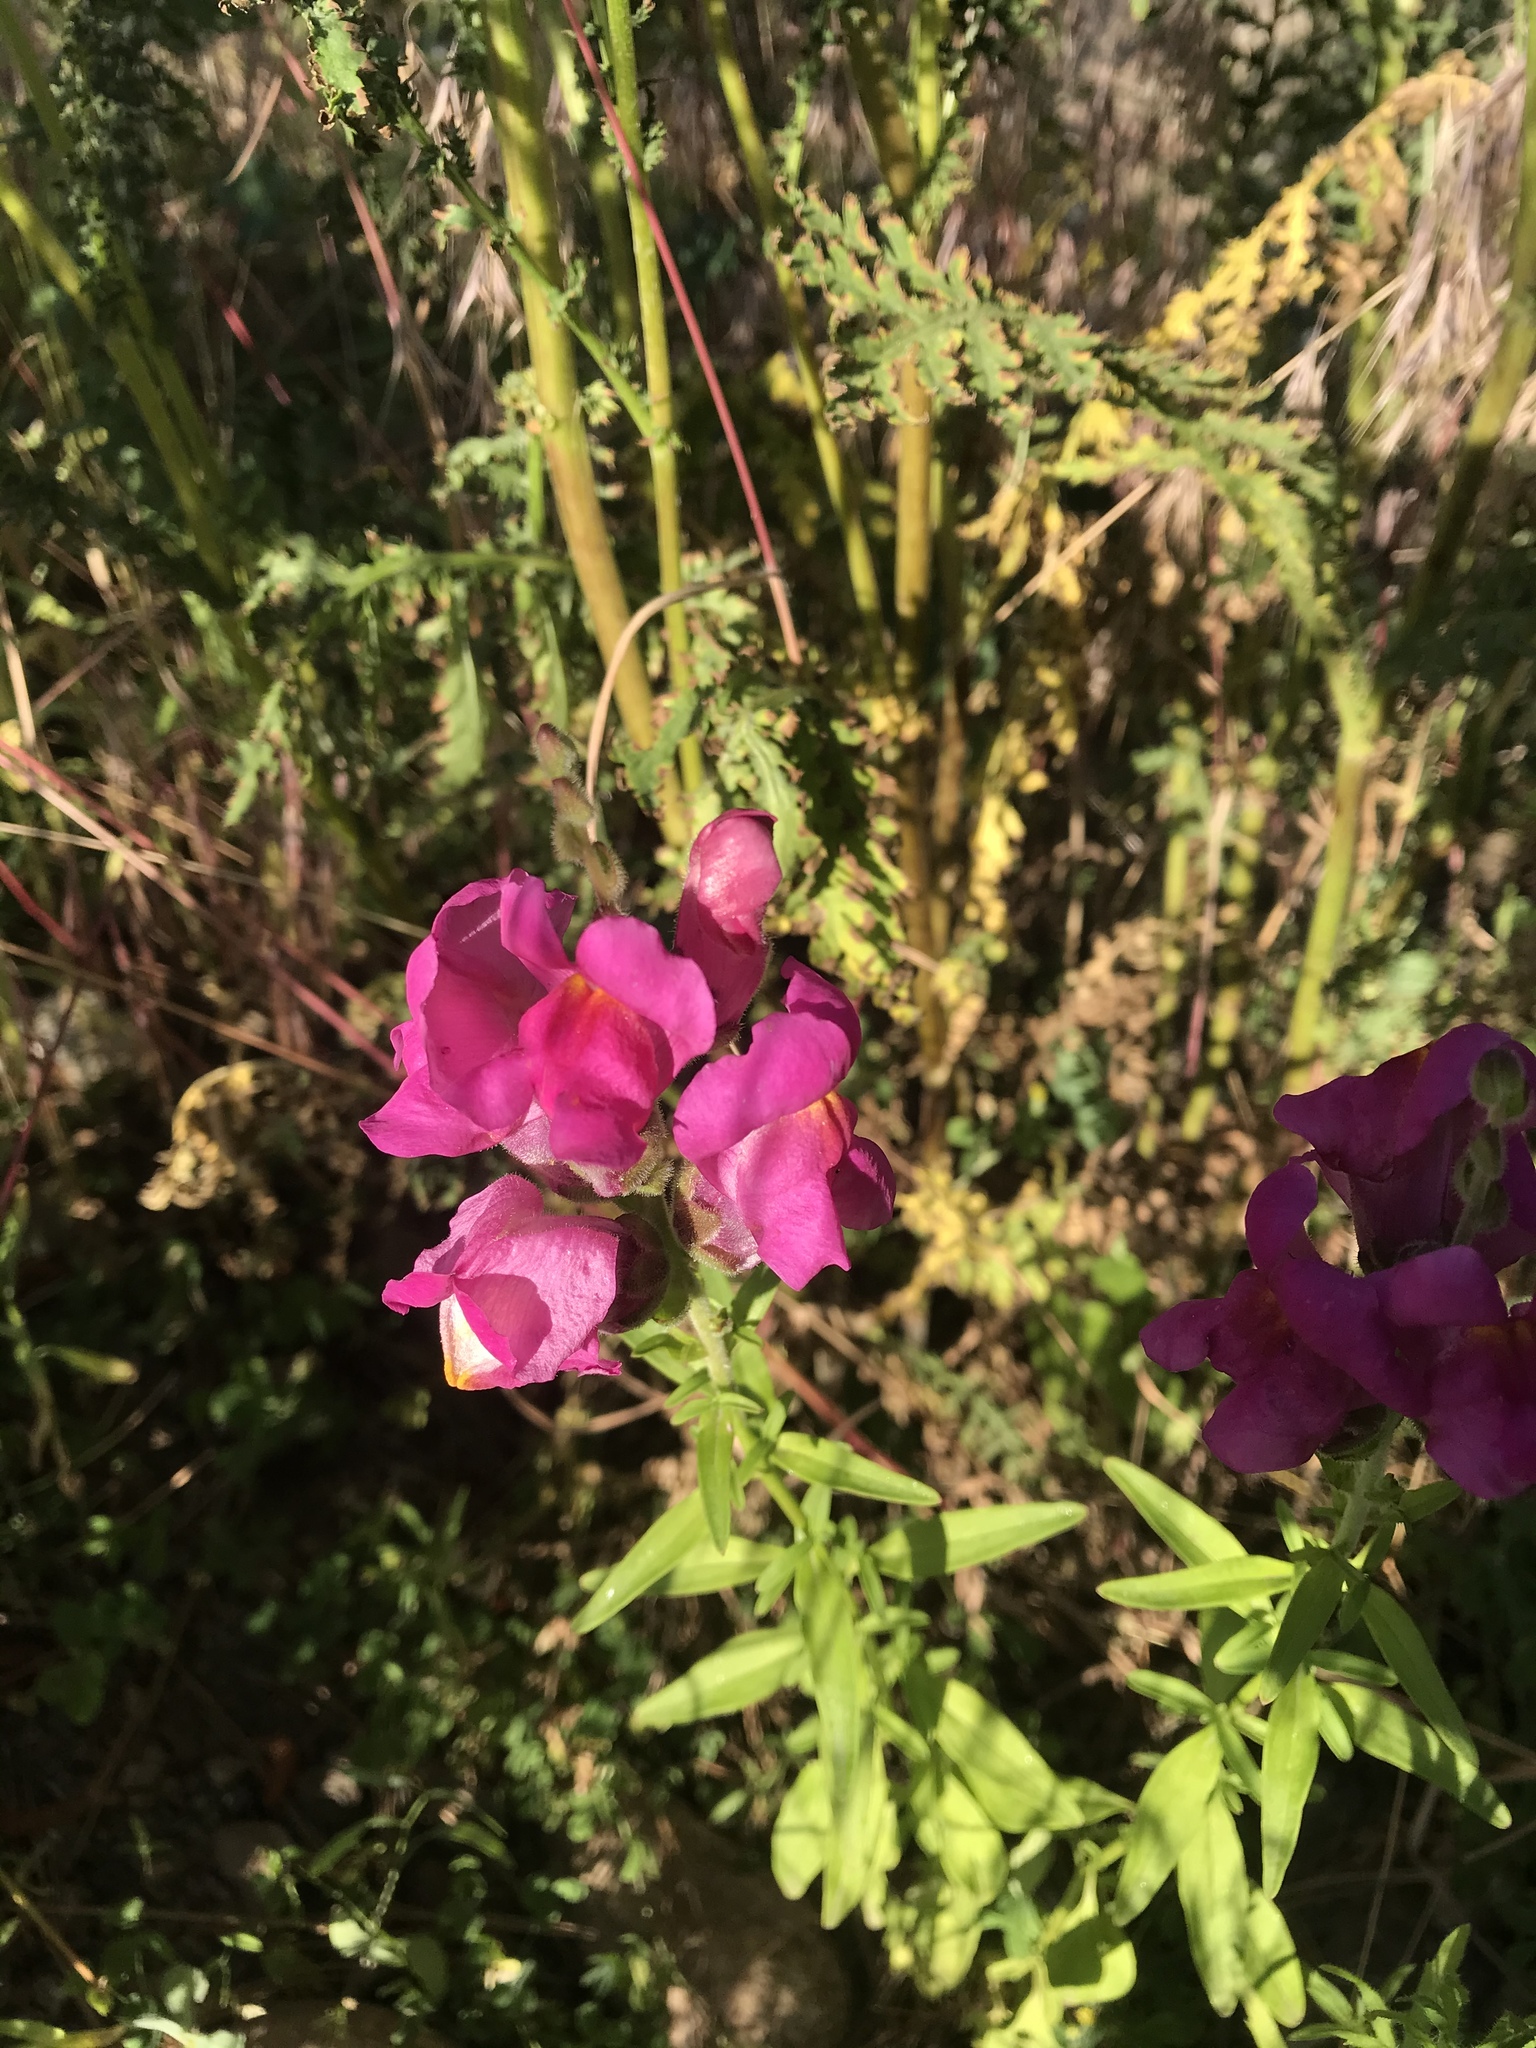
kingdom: Plantae
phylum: Tracheophyta
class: Magnoliopsida
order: Lamiales
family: Plantaginaceae
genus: Antirrhinum
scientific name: Antirrhinum majus
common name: Snapdragon
